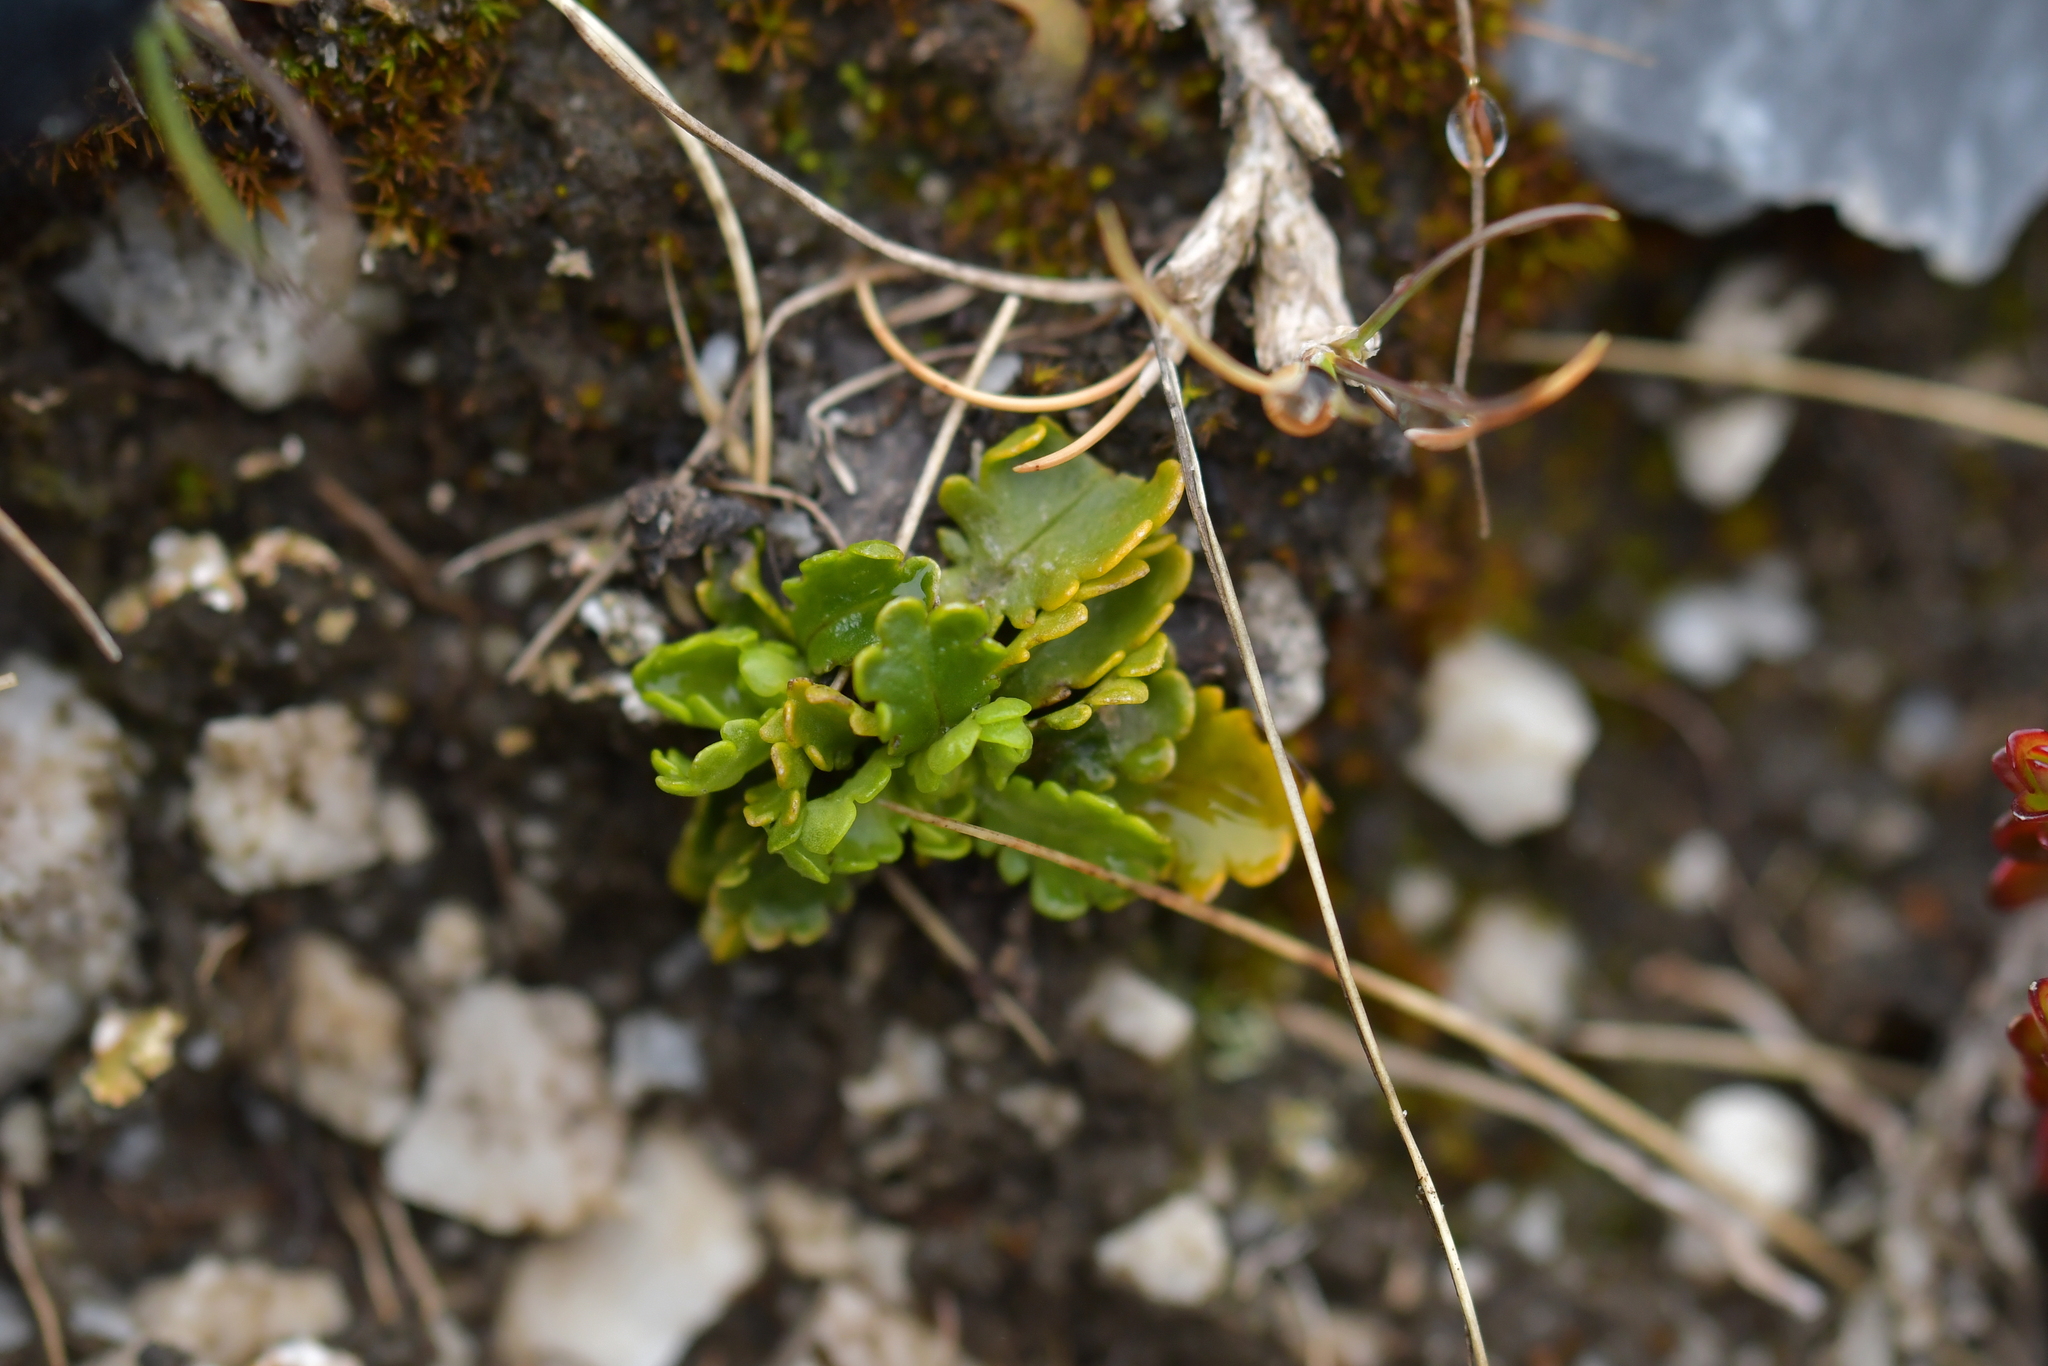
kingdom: Plantae
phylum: Tracheophyta
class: Magnoliopsida
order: Asterales
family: Asteraceae
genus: Brachyscome
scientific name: Brachyscome sinclairii
